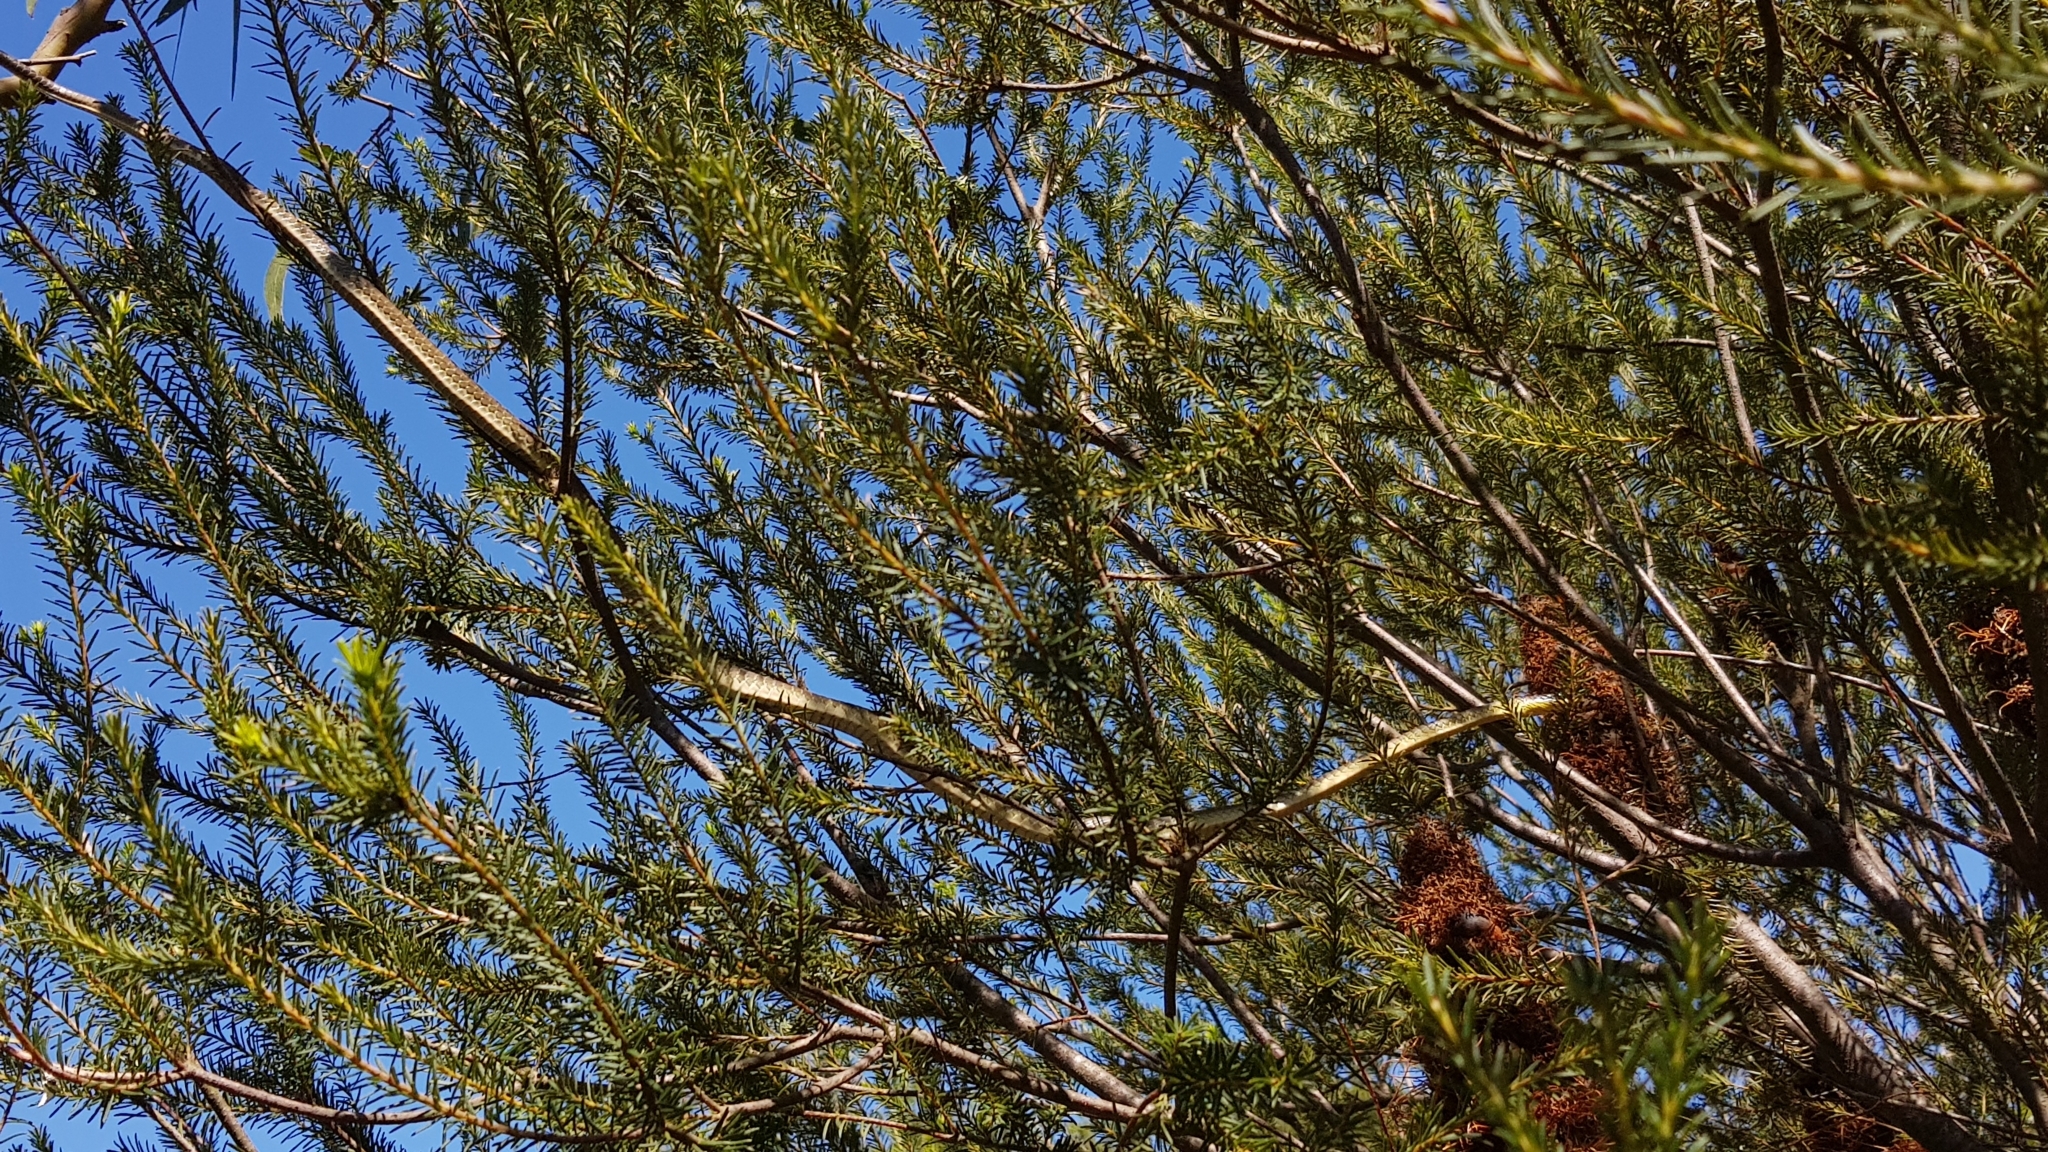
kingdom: Animalia
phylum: Chordata
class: Squamata
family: Colubridae
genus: Dendrelaphis
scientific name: Dendrelaphis punctulatus
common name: Common tree snake
